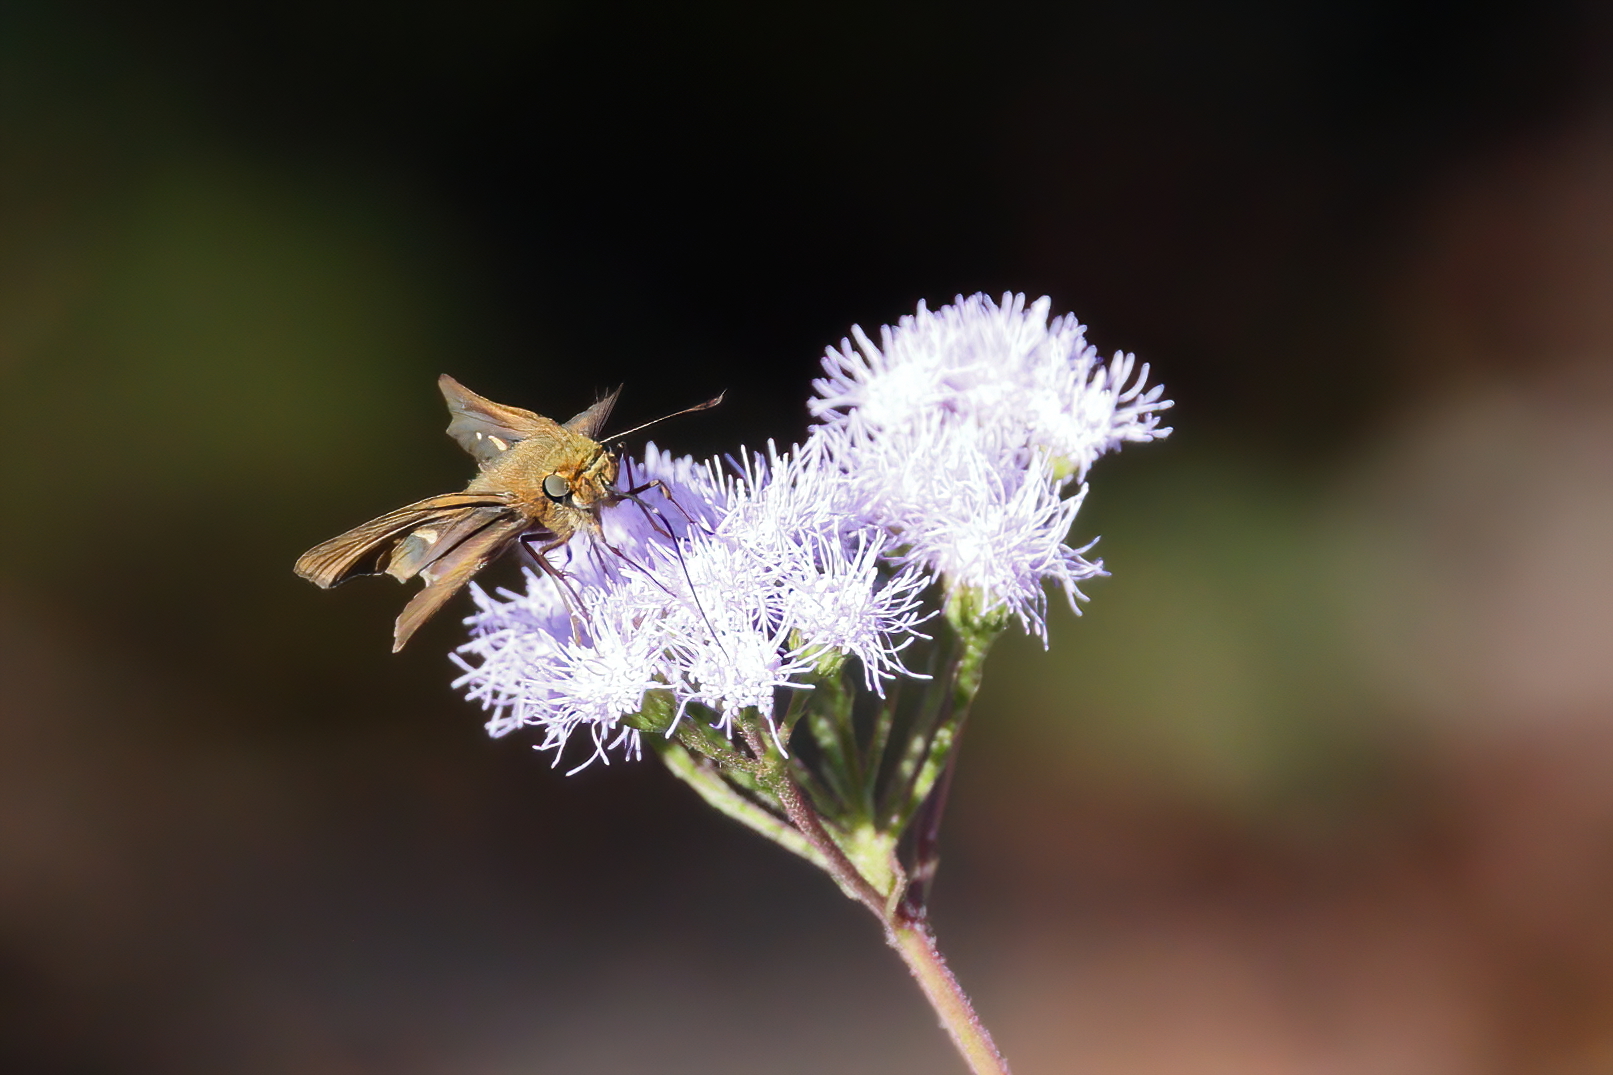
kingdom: Animalia
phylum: Arthropoda
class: Insecta
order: Lepidoptera
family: Hesperiidae
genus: Panoquina
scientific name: Panoquina ocola
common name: Ocola skipper
